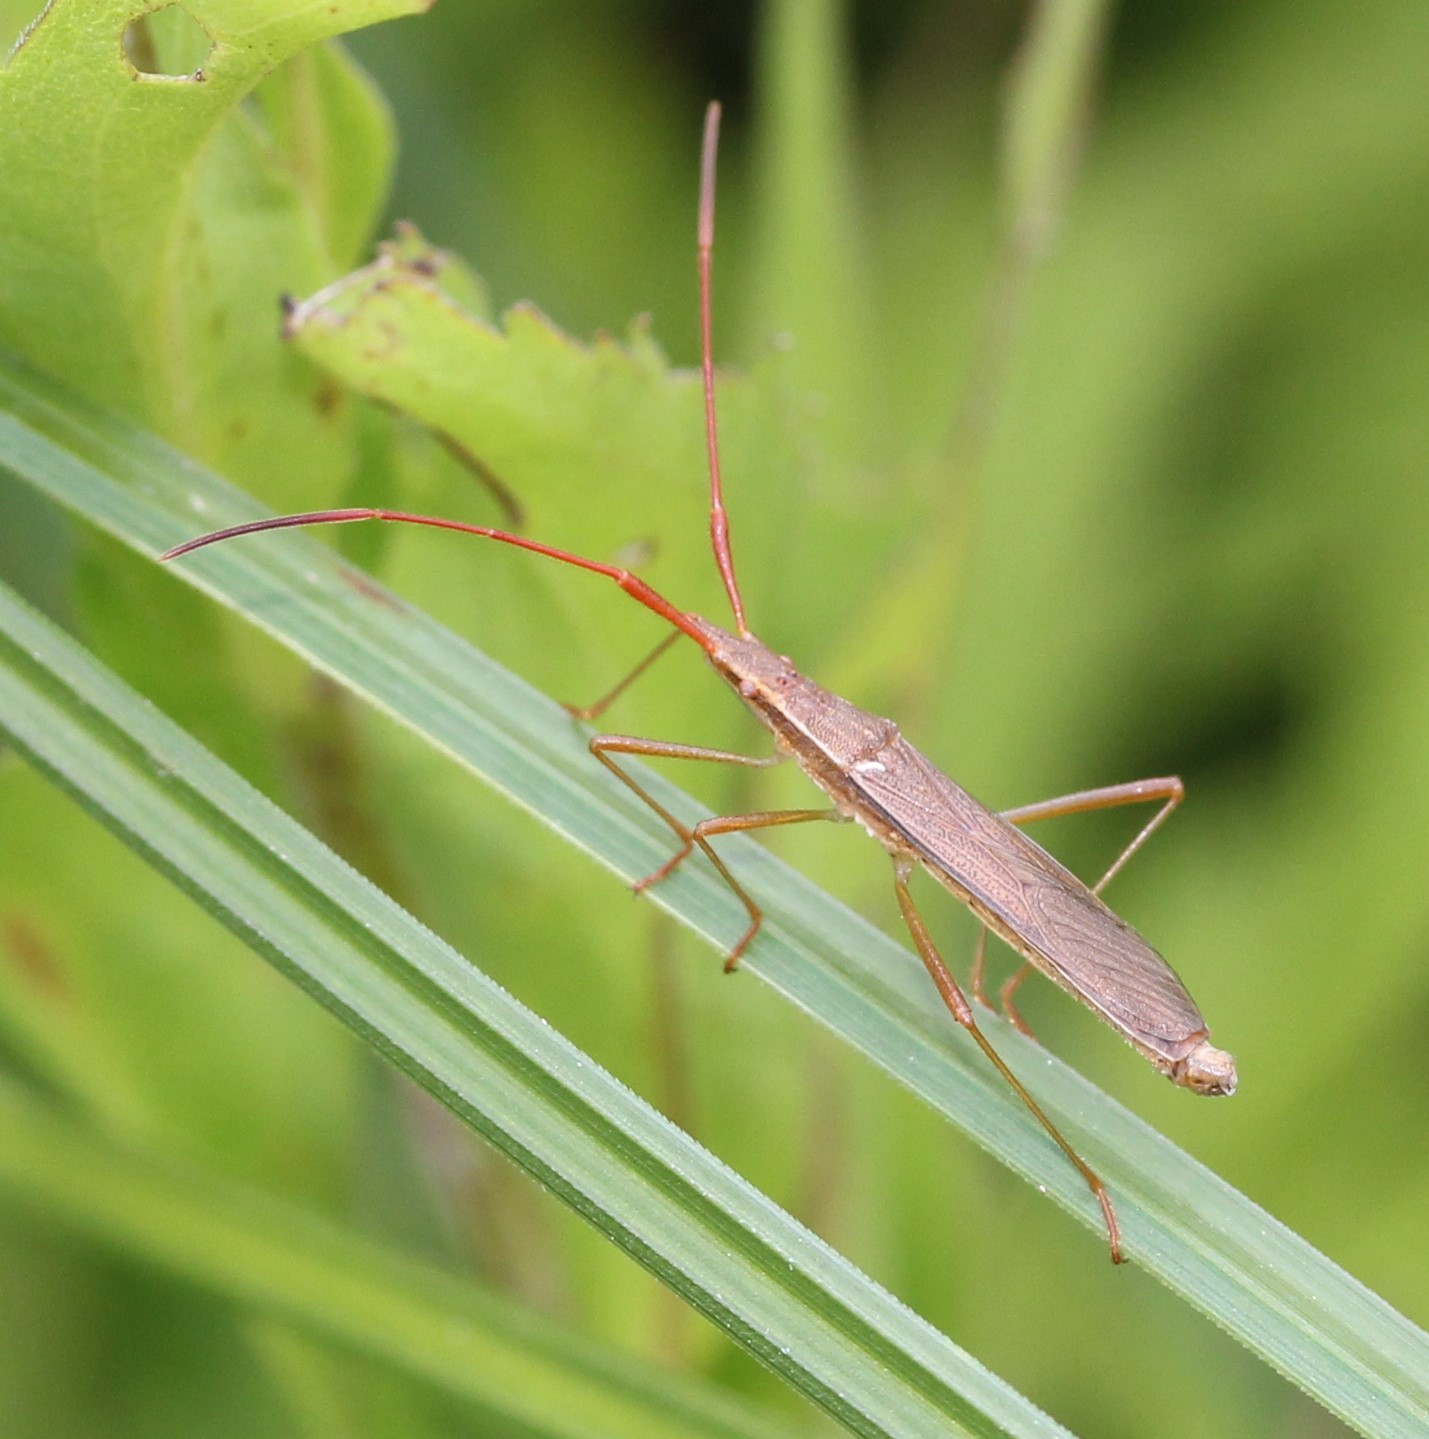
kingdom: Animalia
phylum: Arthropoda
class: Insecta
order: Hemiptera
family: Alydidae
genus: Protenor
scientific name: Protenor belfragei
